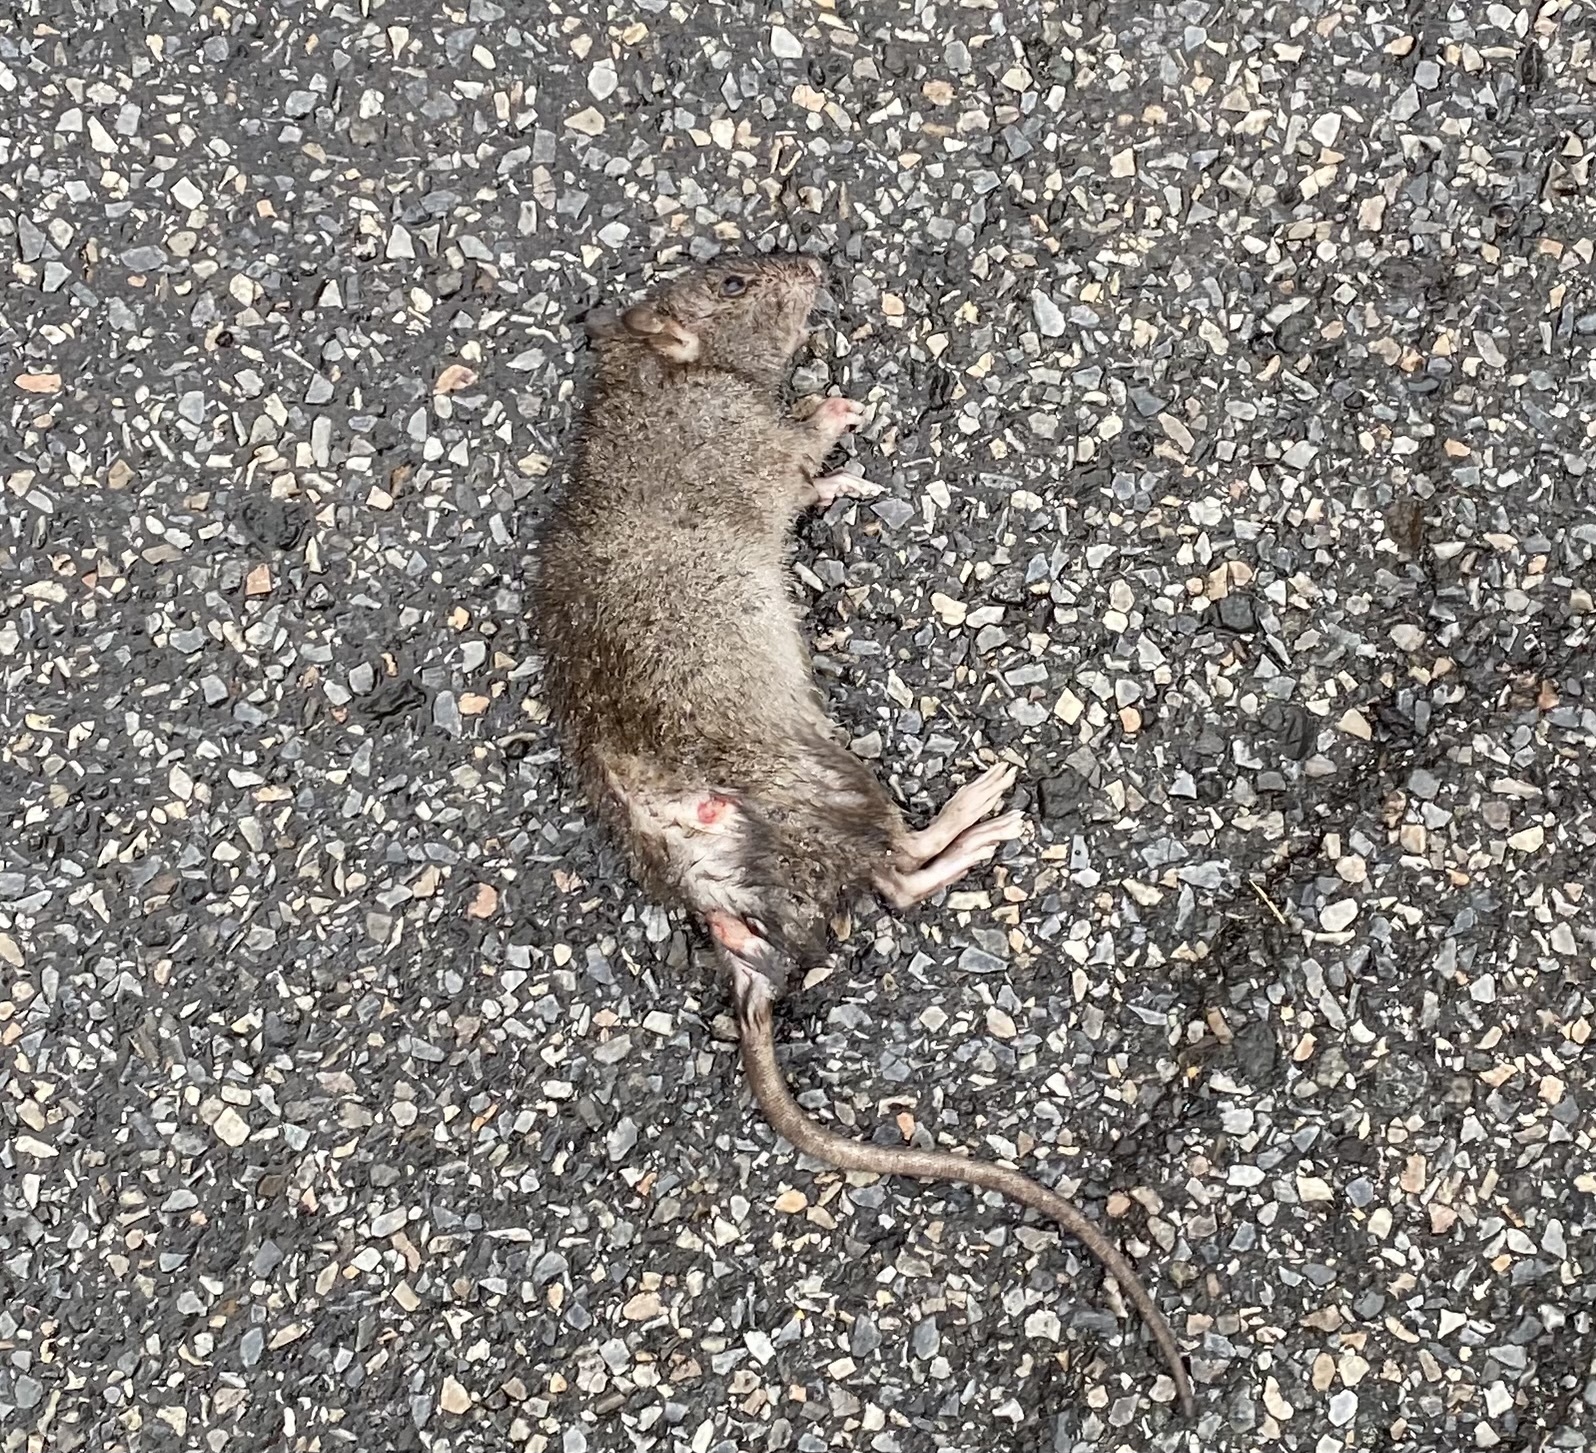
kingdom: Animalia
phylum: Chordata
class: Mammalia
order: Rodentia
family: Muridae
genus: Rattus
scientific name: Rattus norvegicus
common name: Brown rat
